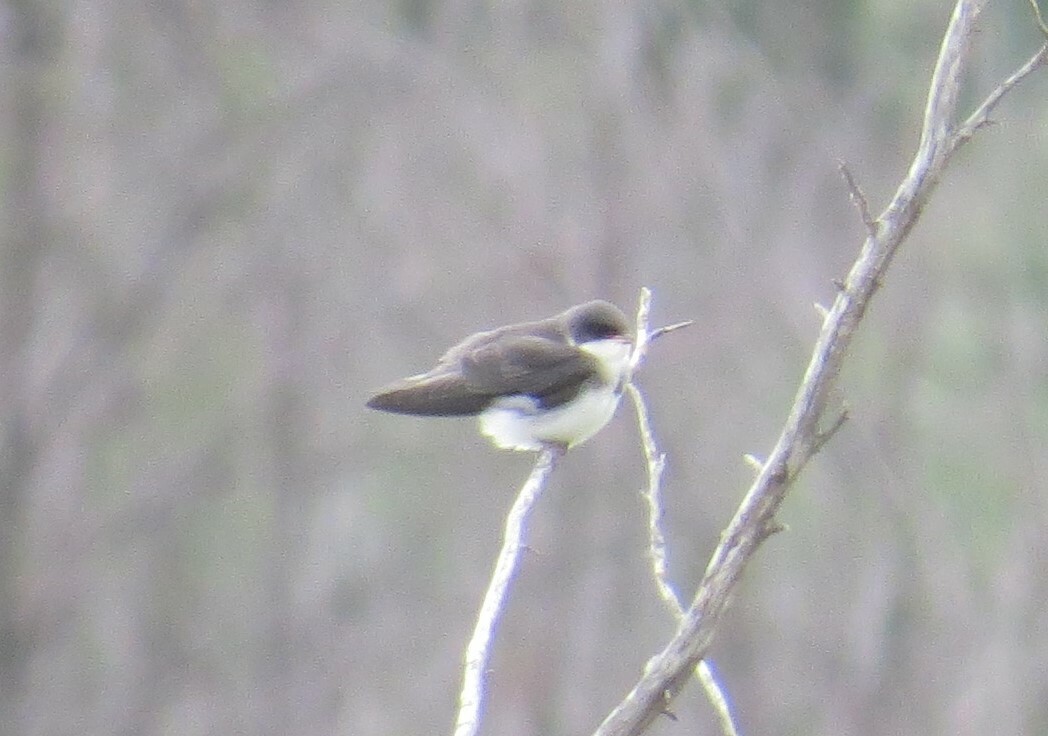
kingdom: Animalia
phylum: Chordata
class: Aves
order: Passeriformes
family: Hirundinidae
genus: Tachycineta
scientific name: Tachycineta bicolor
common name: Tree swallow
